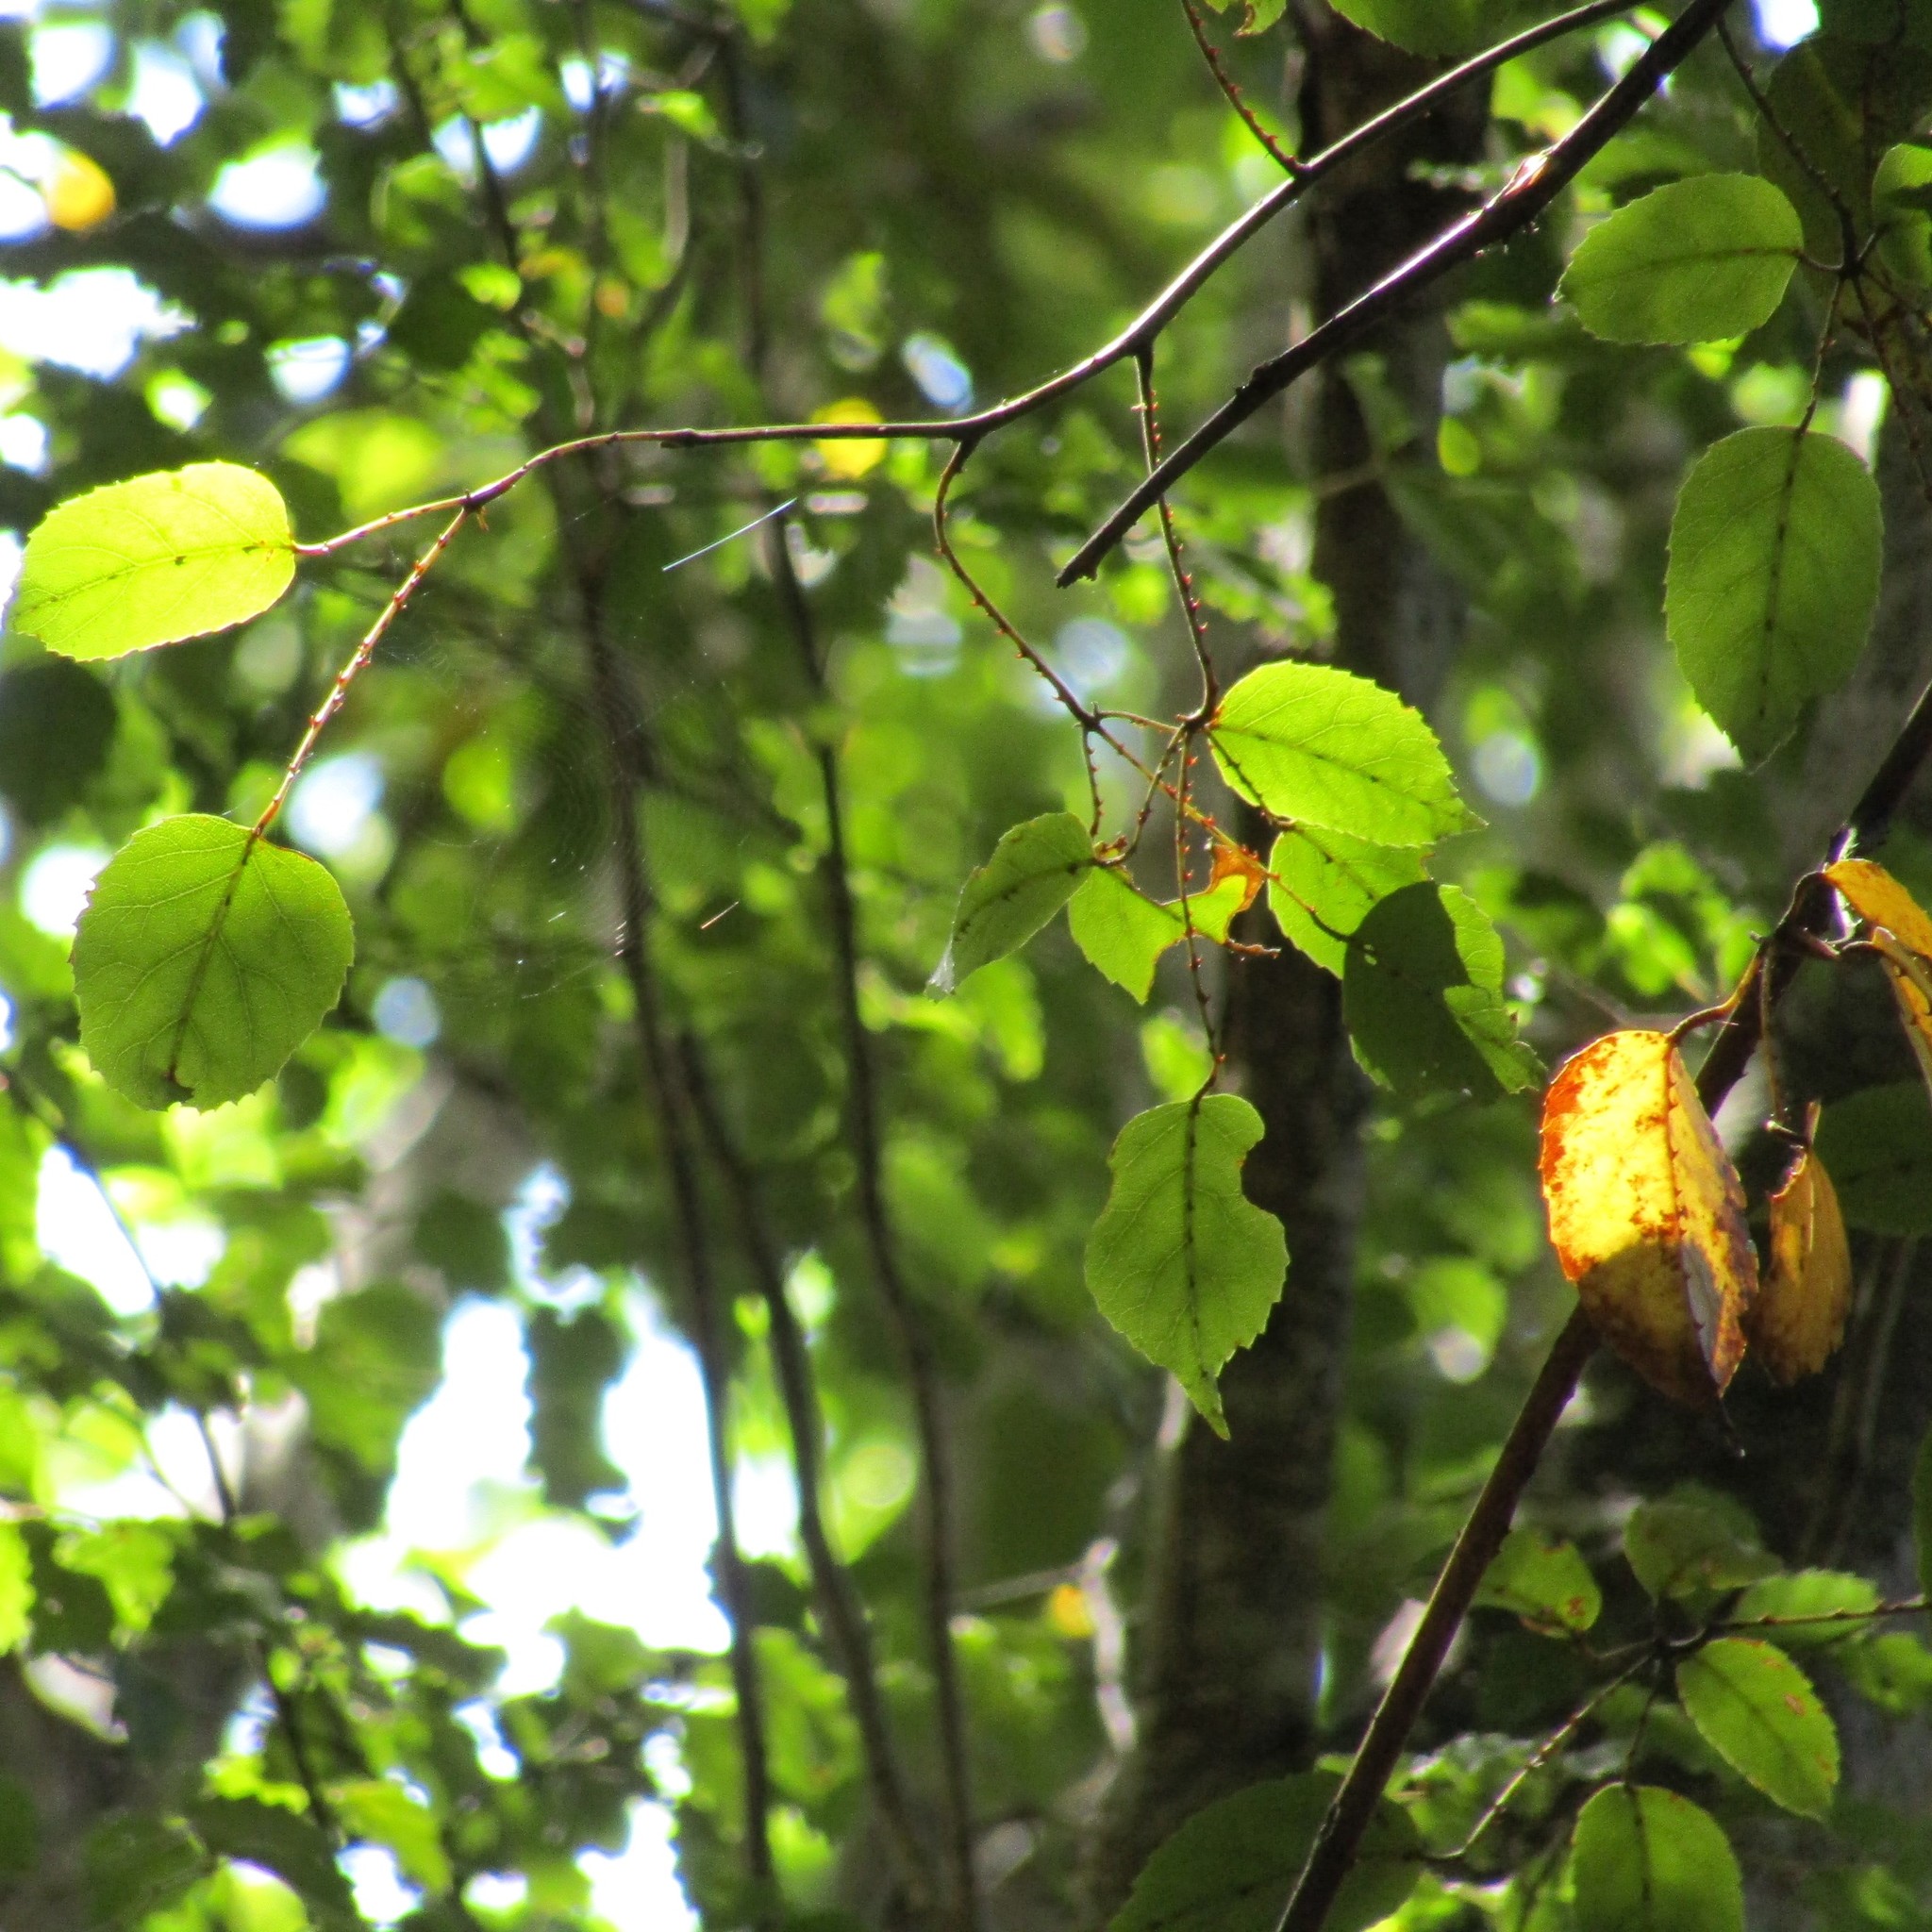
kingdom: Plantae
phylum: Tracheophyta
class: Magnoliopsida
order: Rosales
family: Rosaceae
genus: Rubus
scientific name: Rubus cissoides
